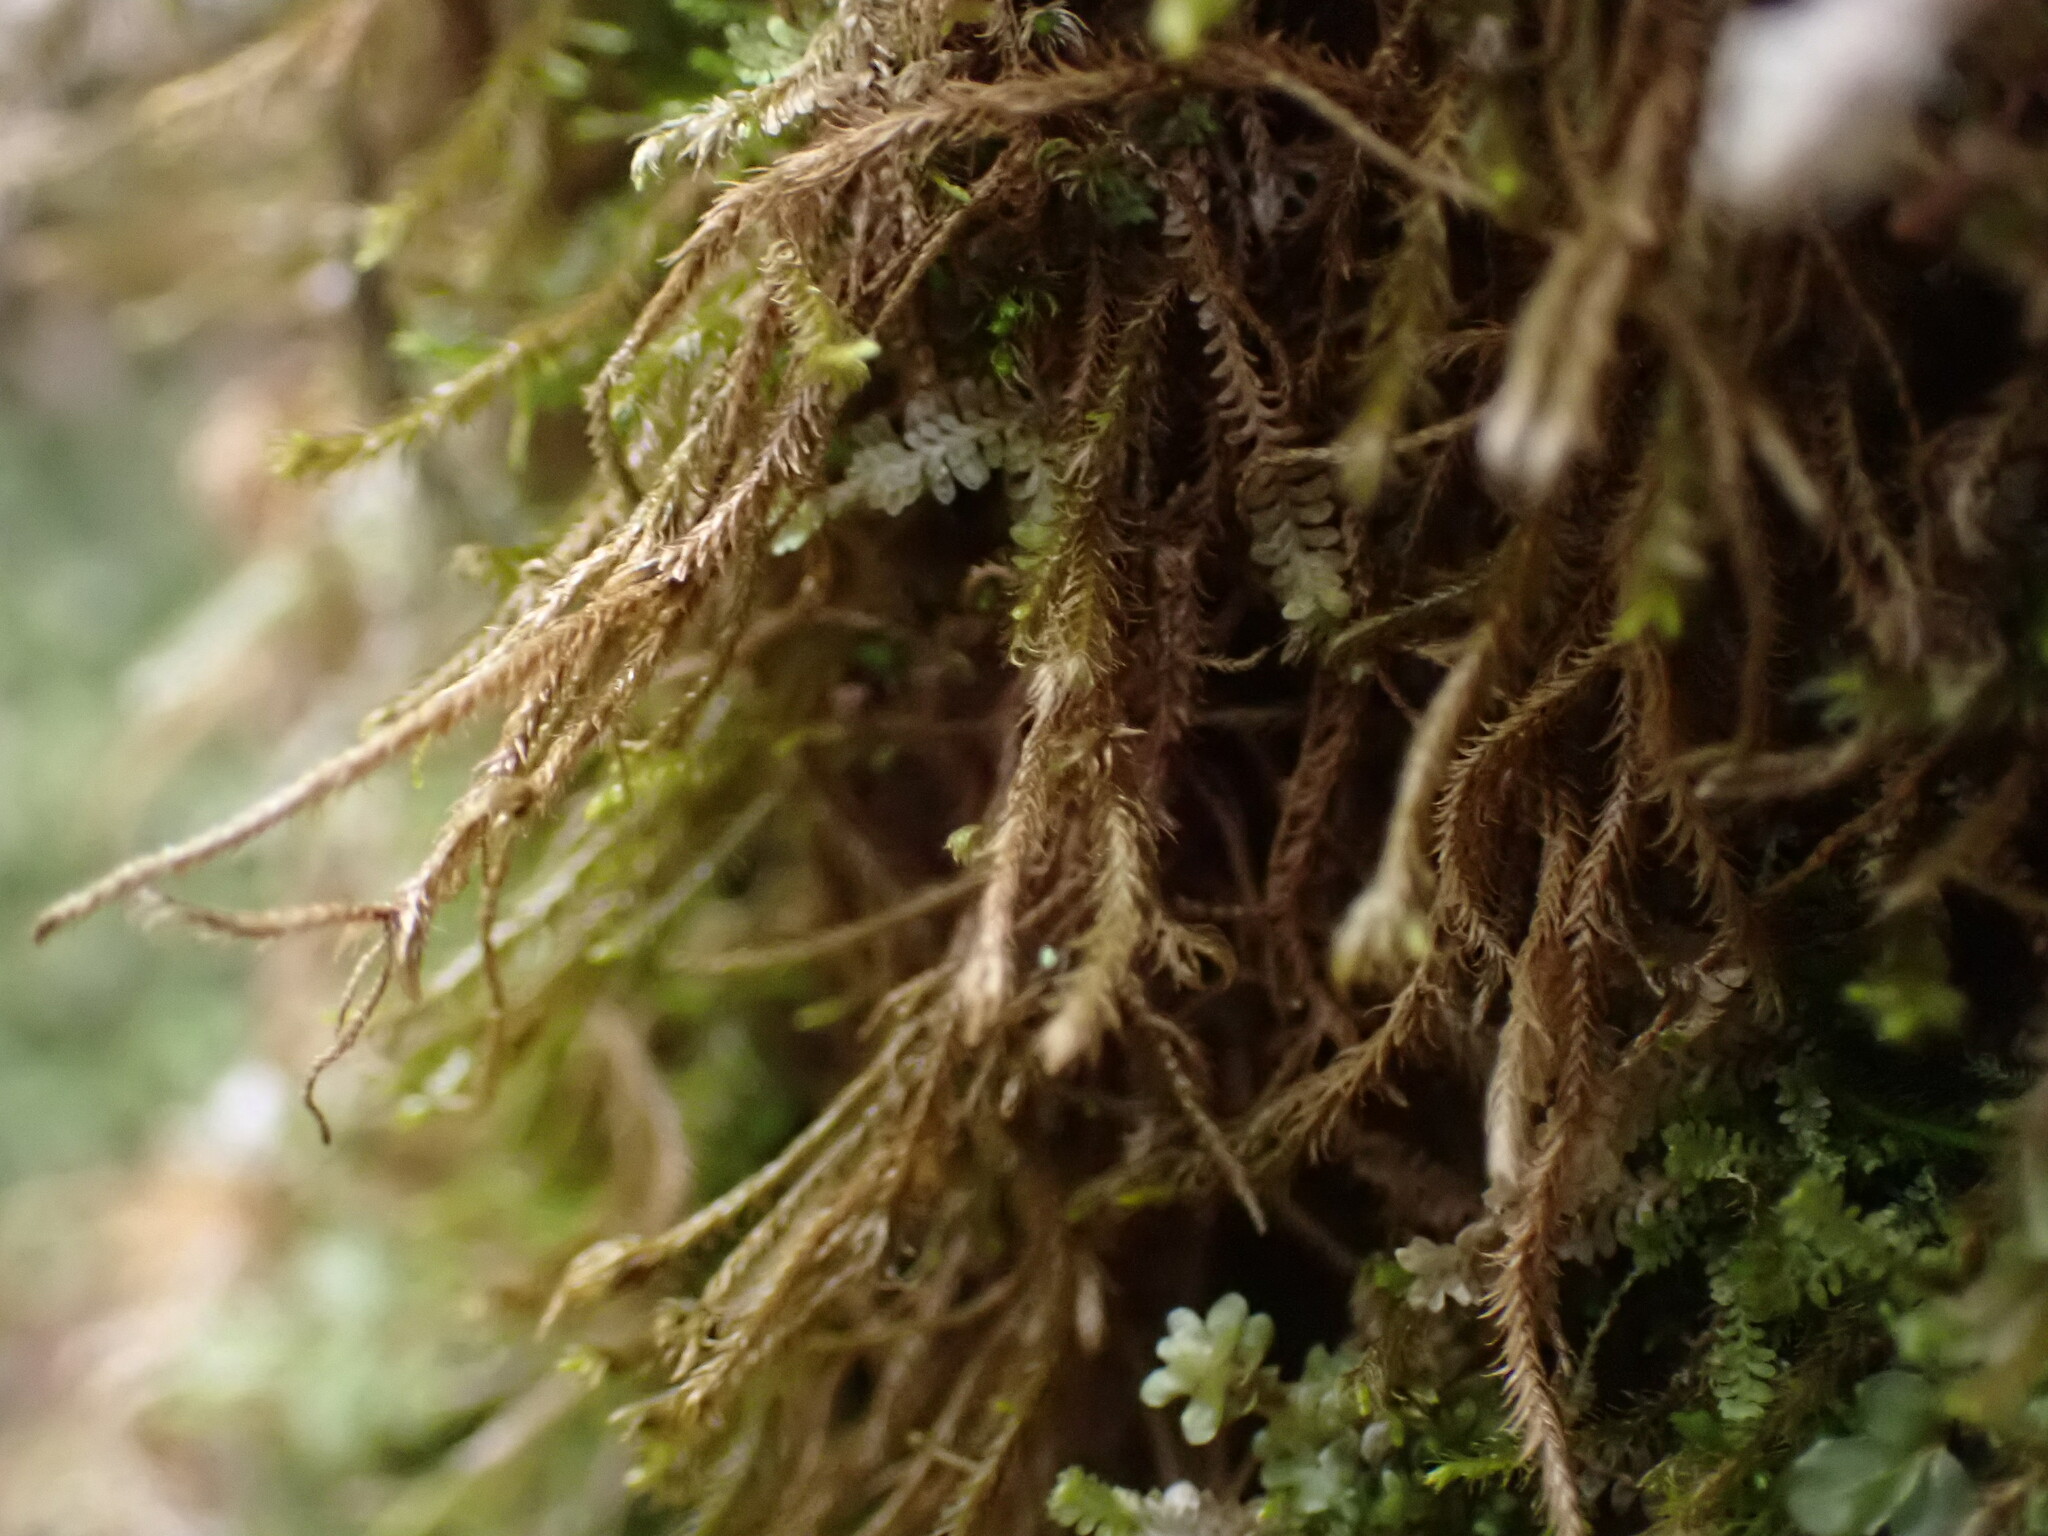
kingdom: Plantae
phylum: Marchantiophyta
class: Jungermanniopsida
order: Jungermanniales
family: Herbertaceae
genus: Herbertus
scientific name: Herbertus aduncus
